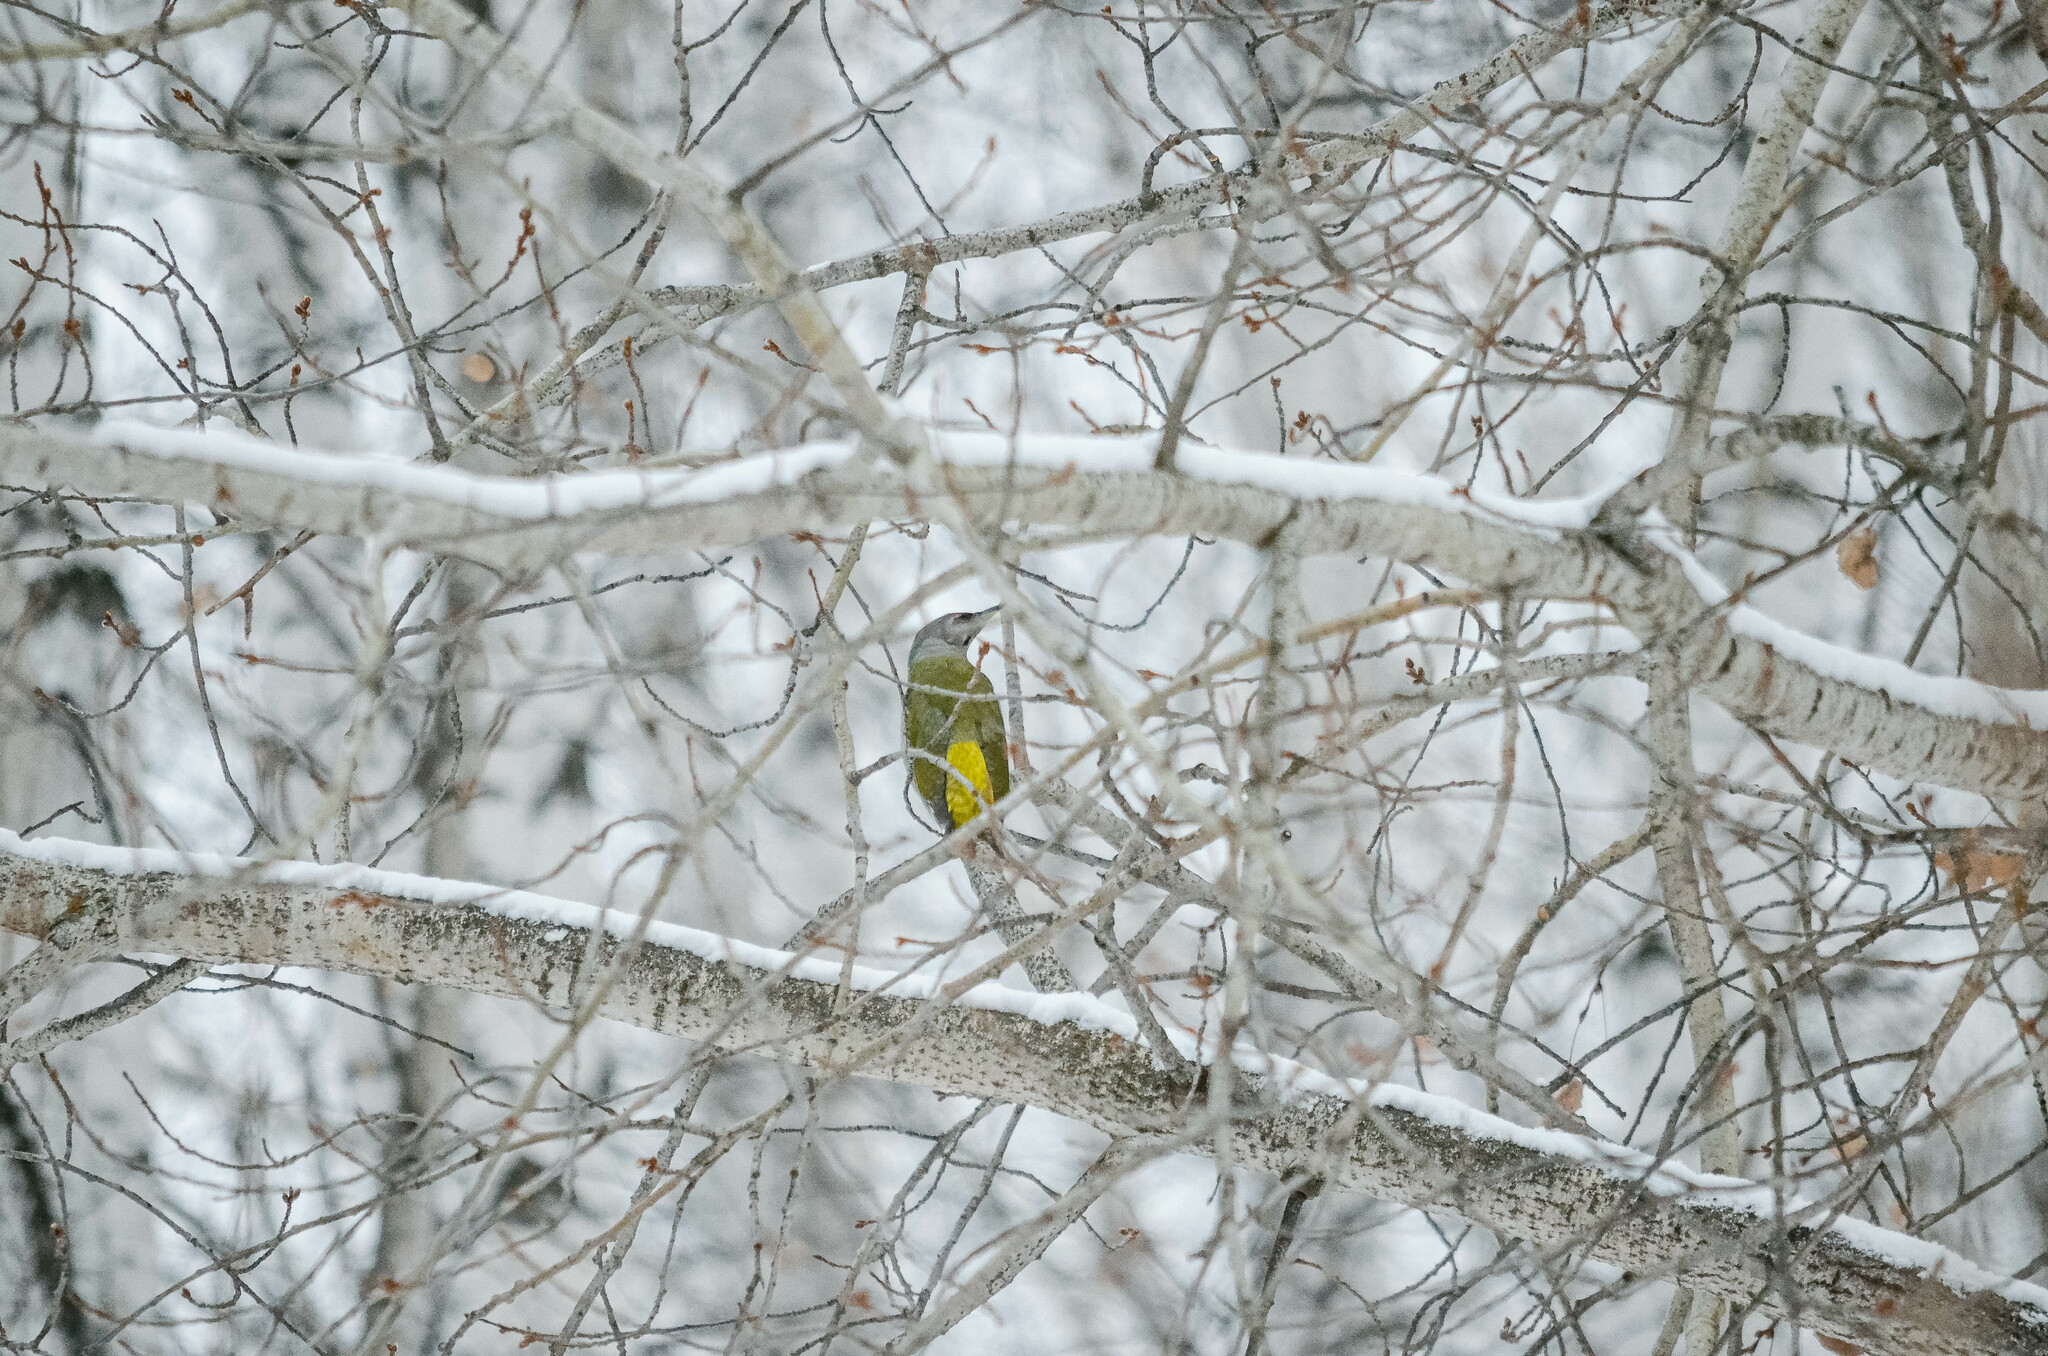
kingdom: Animalia
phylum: Chordata
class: Aves
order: Piciformes
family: Picidae
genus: Picus
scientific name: Picus canus
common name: Grey-headed woodpecker
